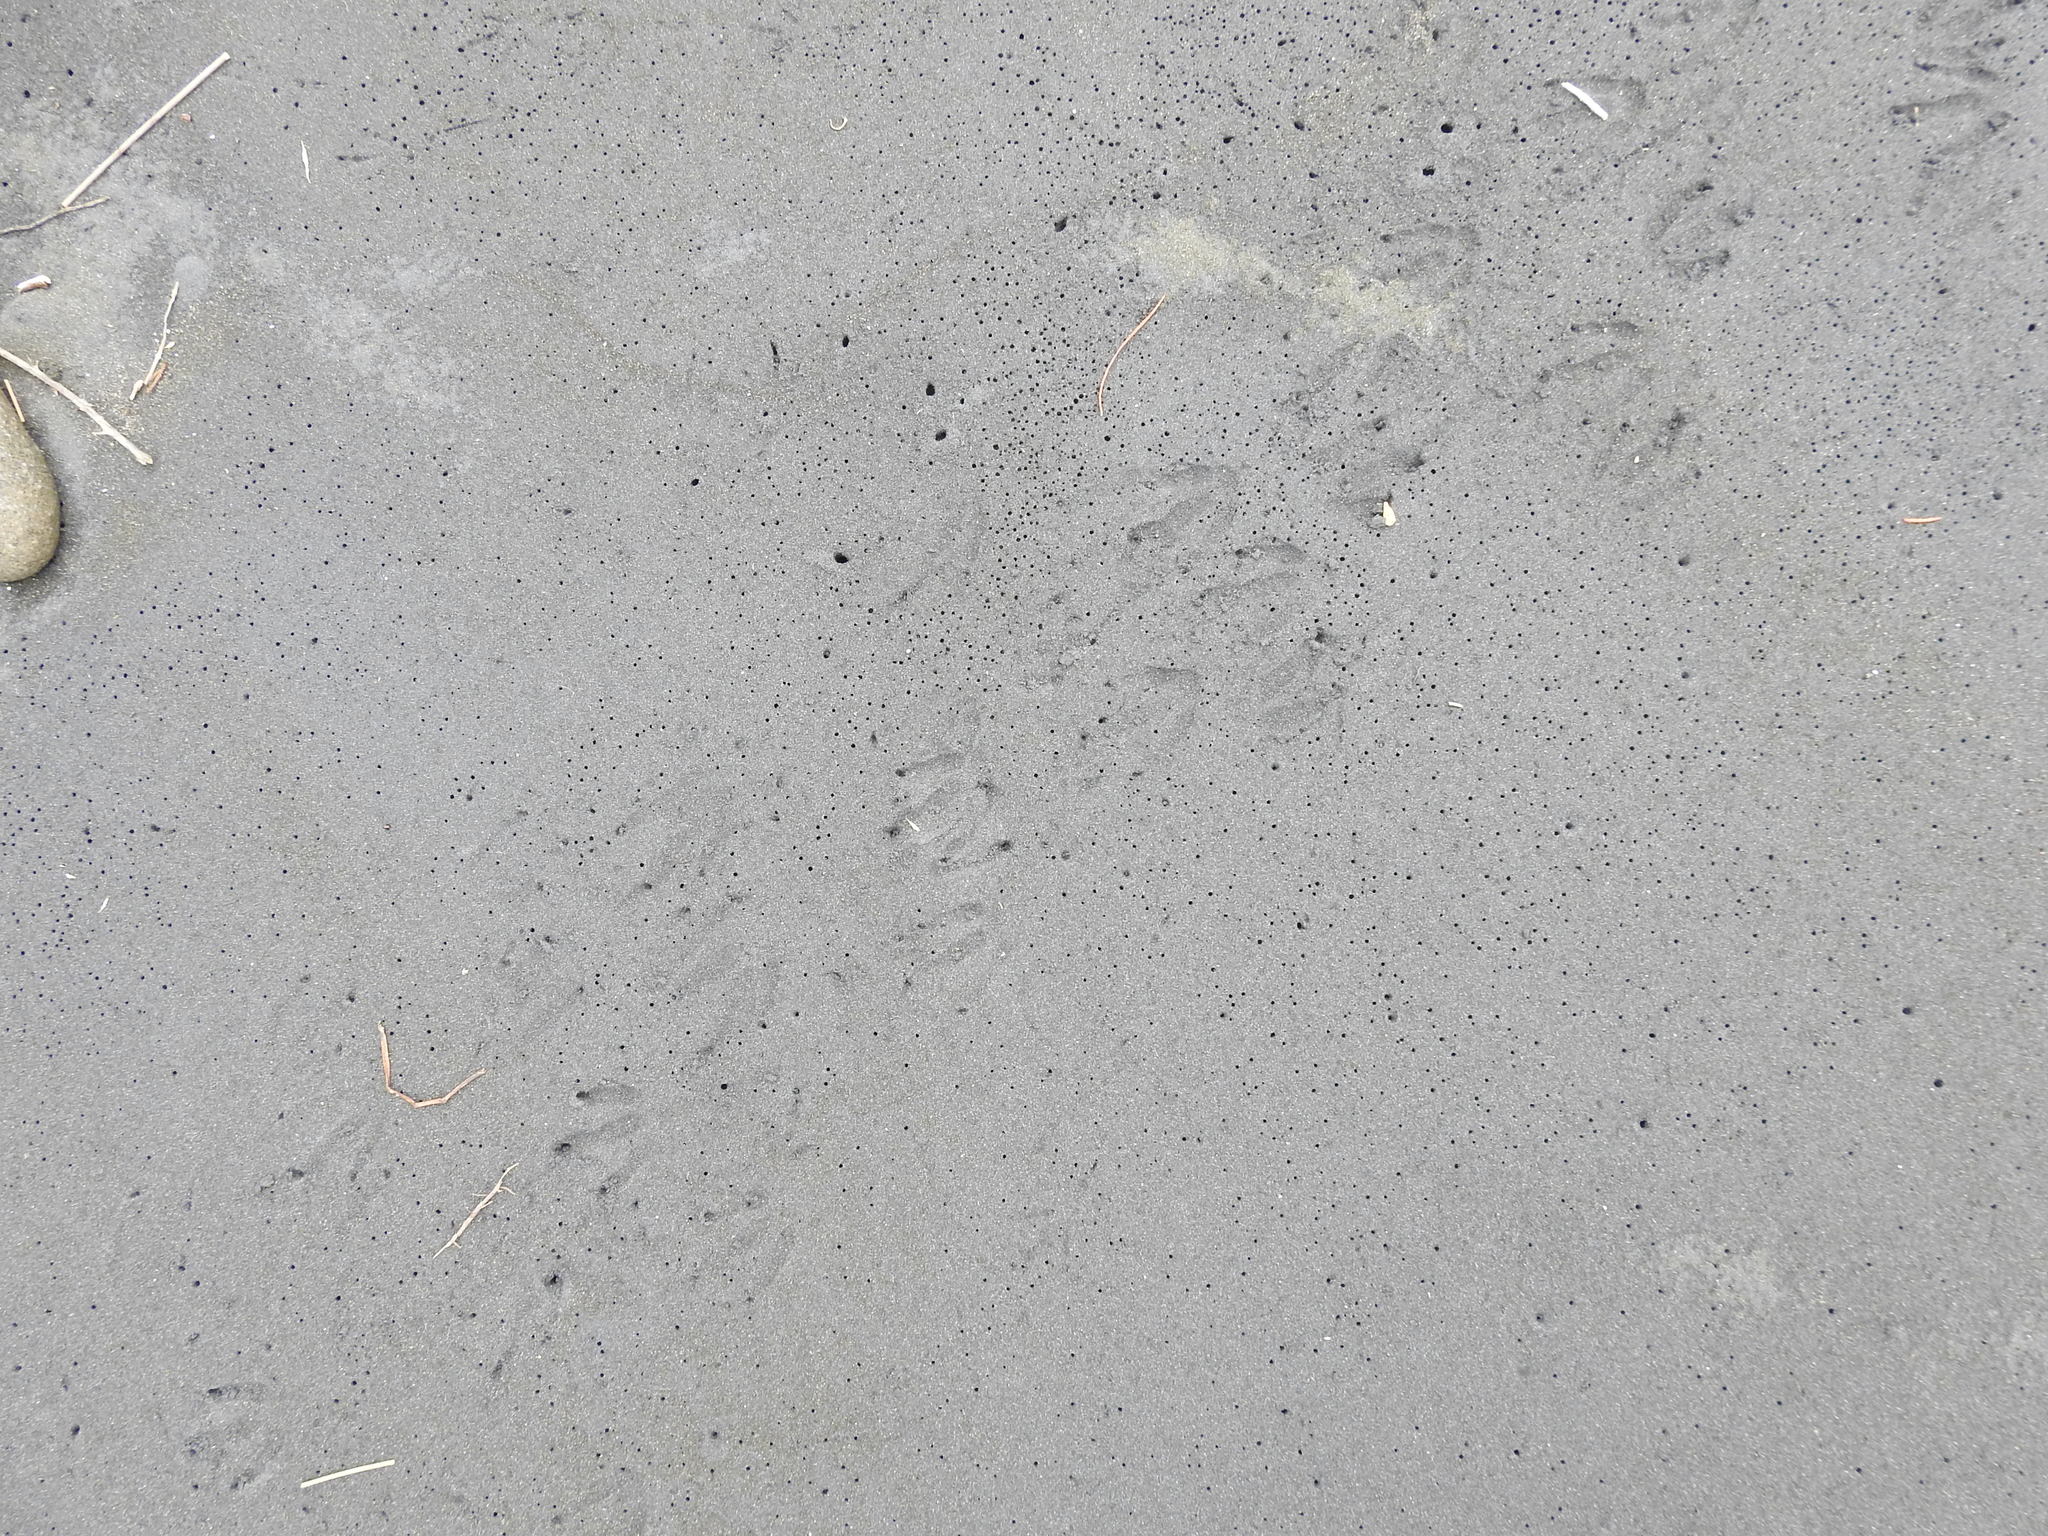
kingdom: Animalia
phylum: Chordata
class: Aves
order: Sphenisciformes
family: Spheniscidae
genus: Eudyptula
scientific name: Eudyptula minor
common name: Little penguin
